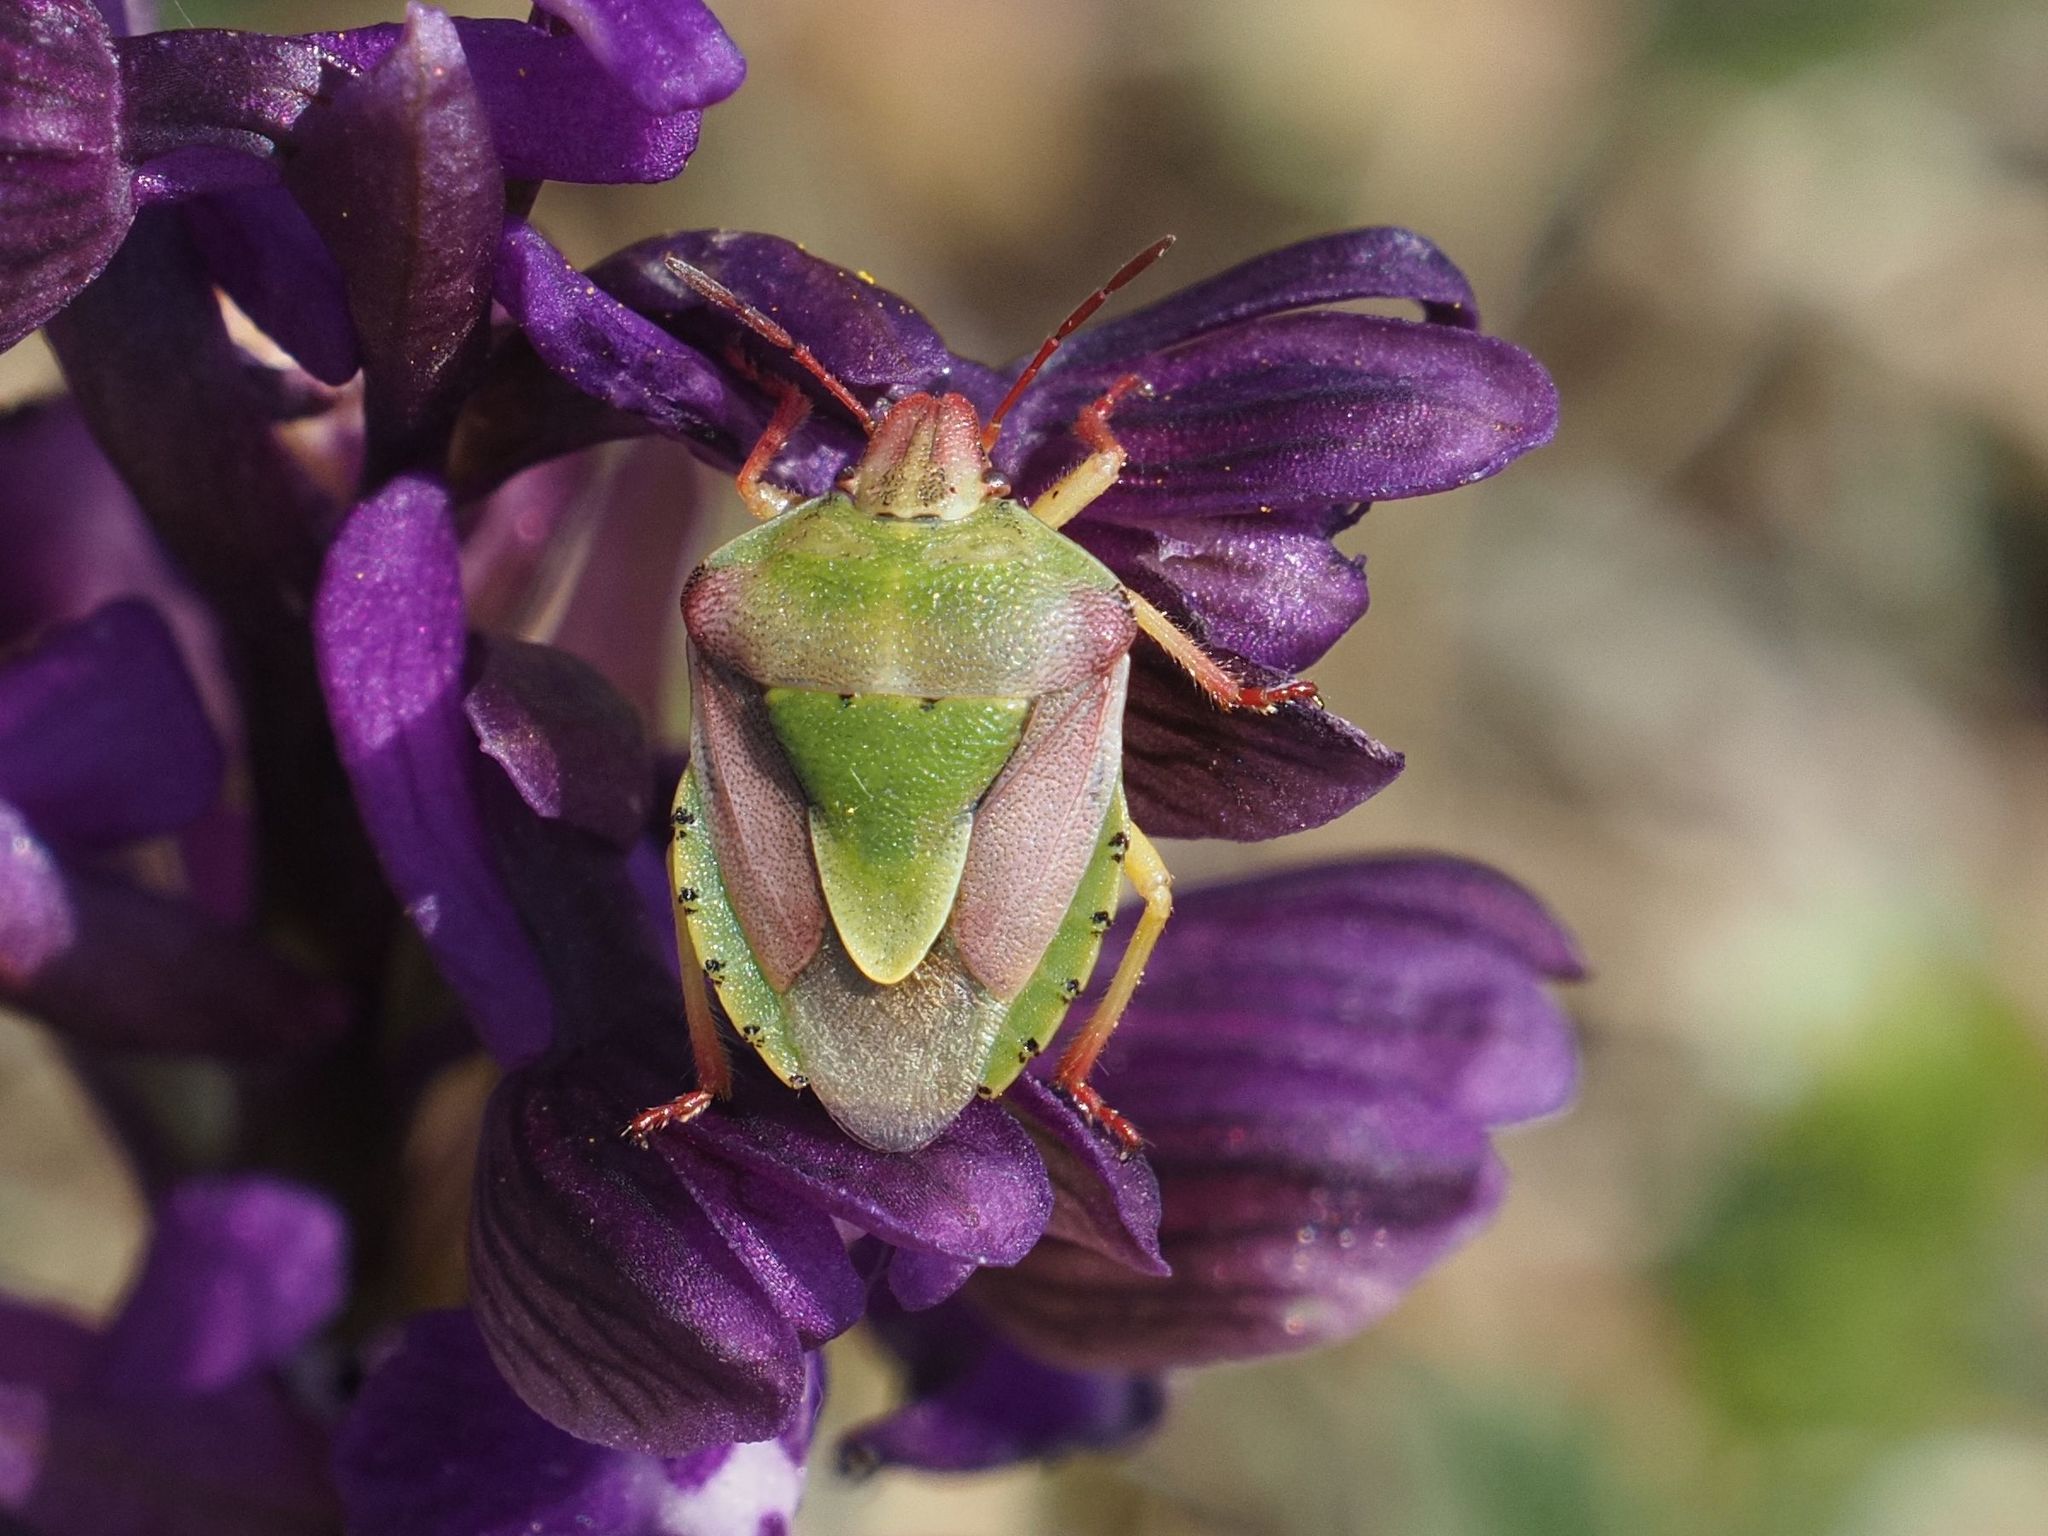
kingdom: Animalia
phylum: Arthropoda
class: Insecta
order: Hemiptera
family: Pentatomidae
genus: Antheminia
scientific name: Antheminia lunulata
